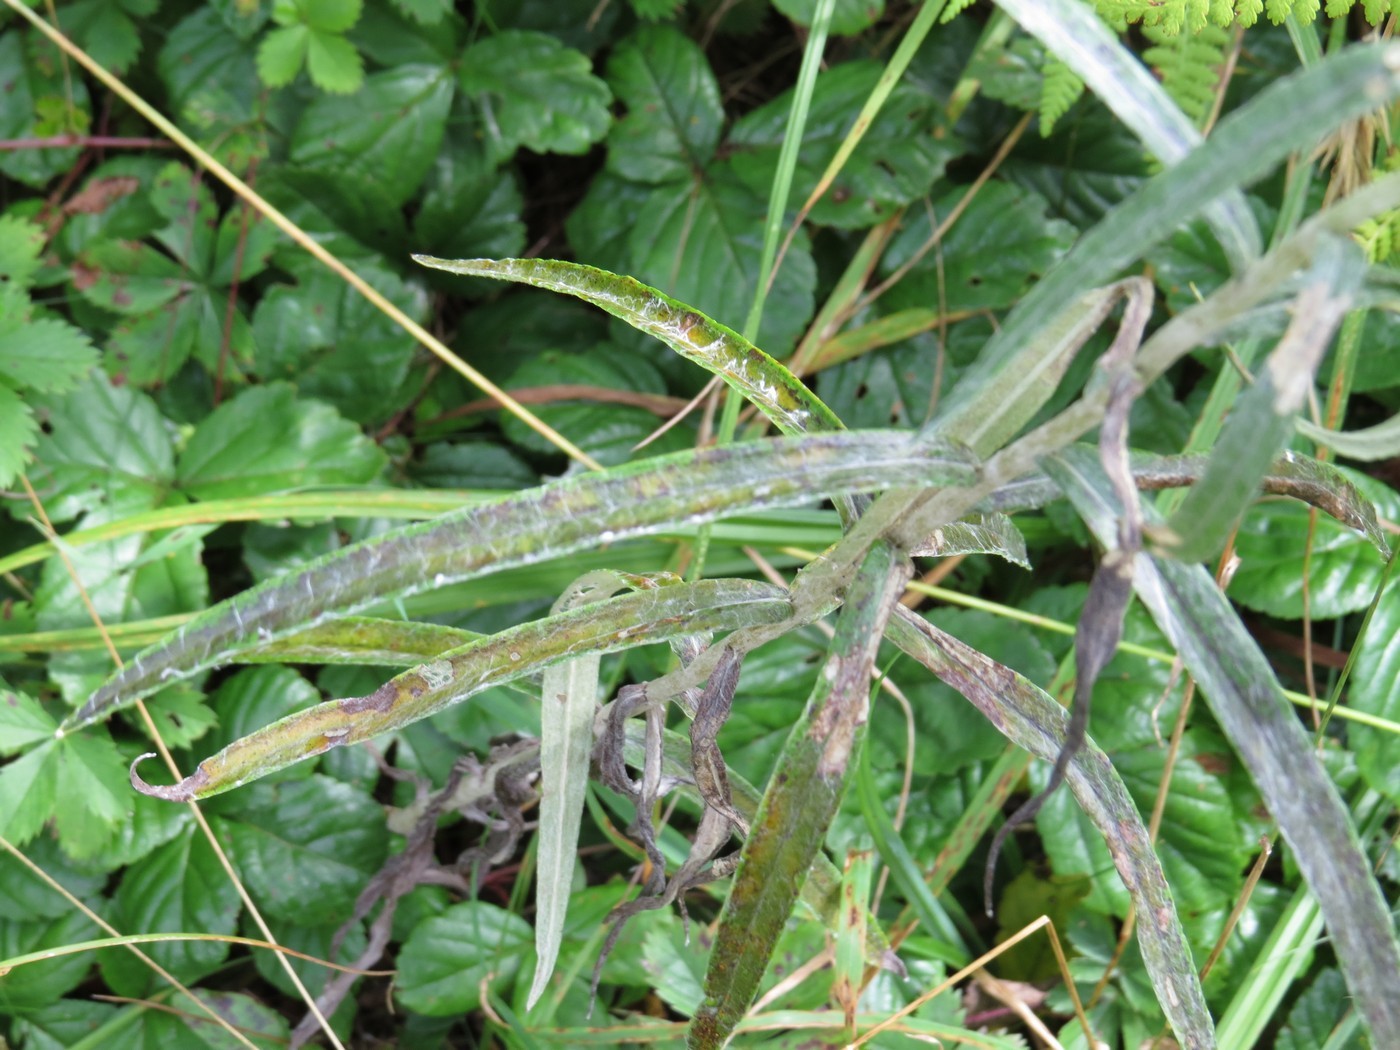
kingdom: Plantae
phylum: Tracheophyta
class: Magnoliopsida
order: Asterales
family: Asteraceae
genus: Anaphalis
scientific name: Anaphalis margaritacea
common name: Pearly everlasting
